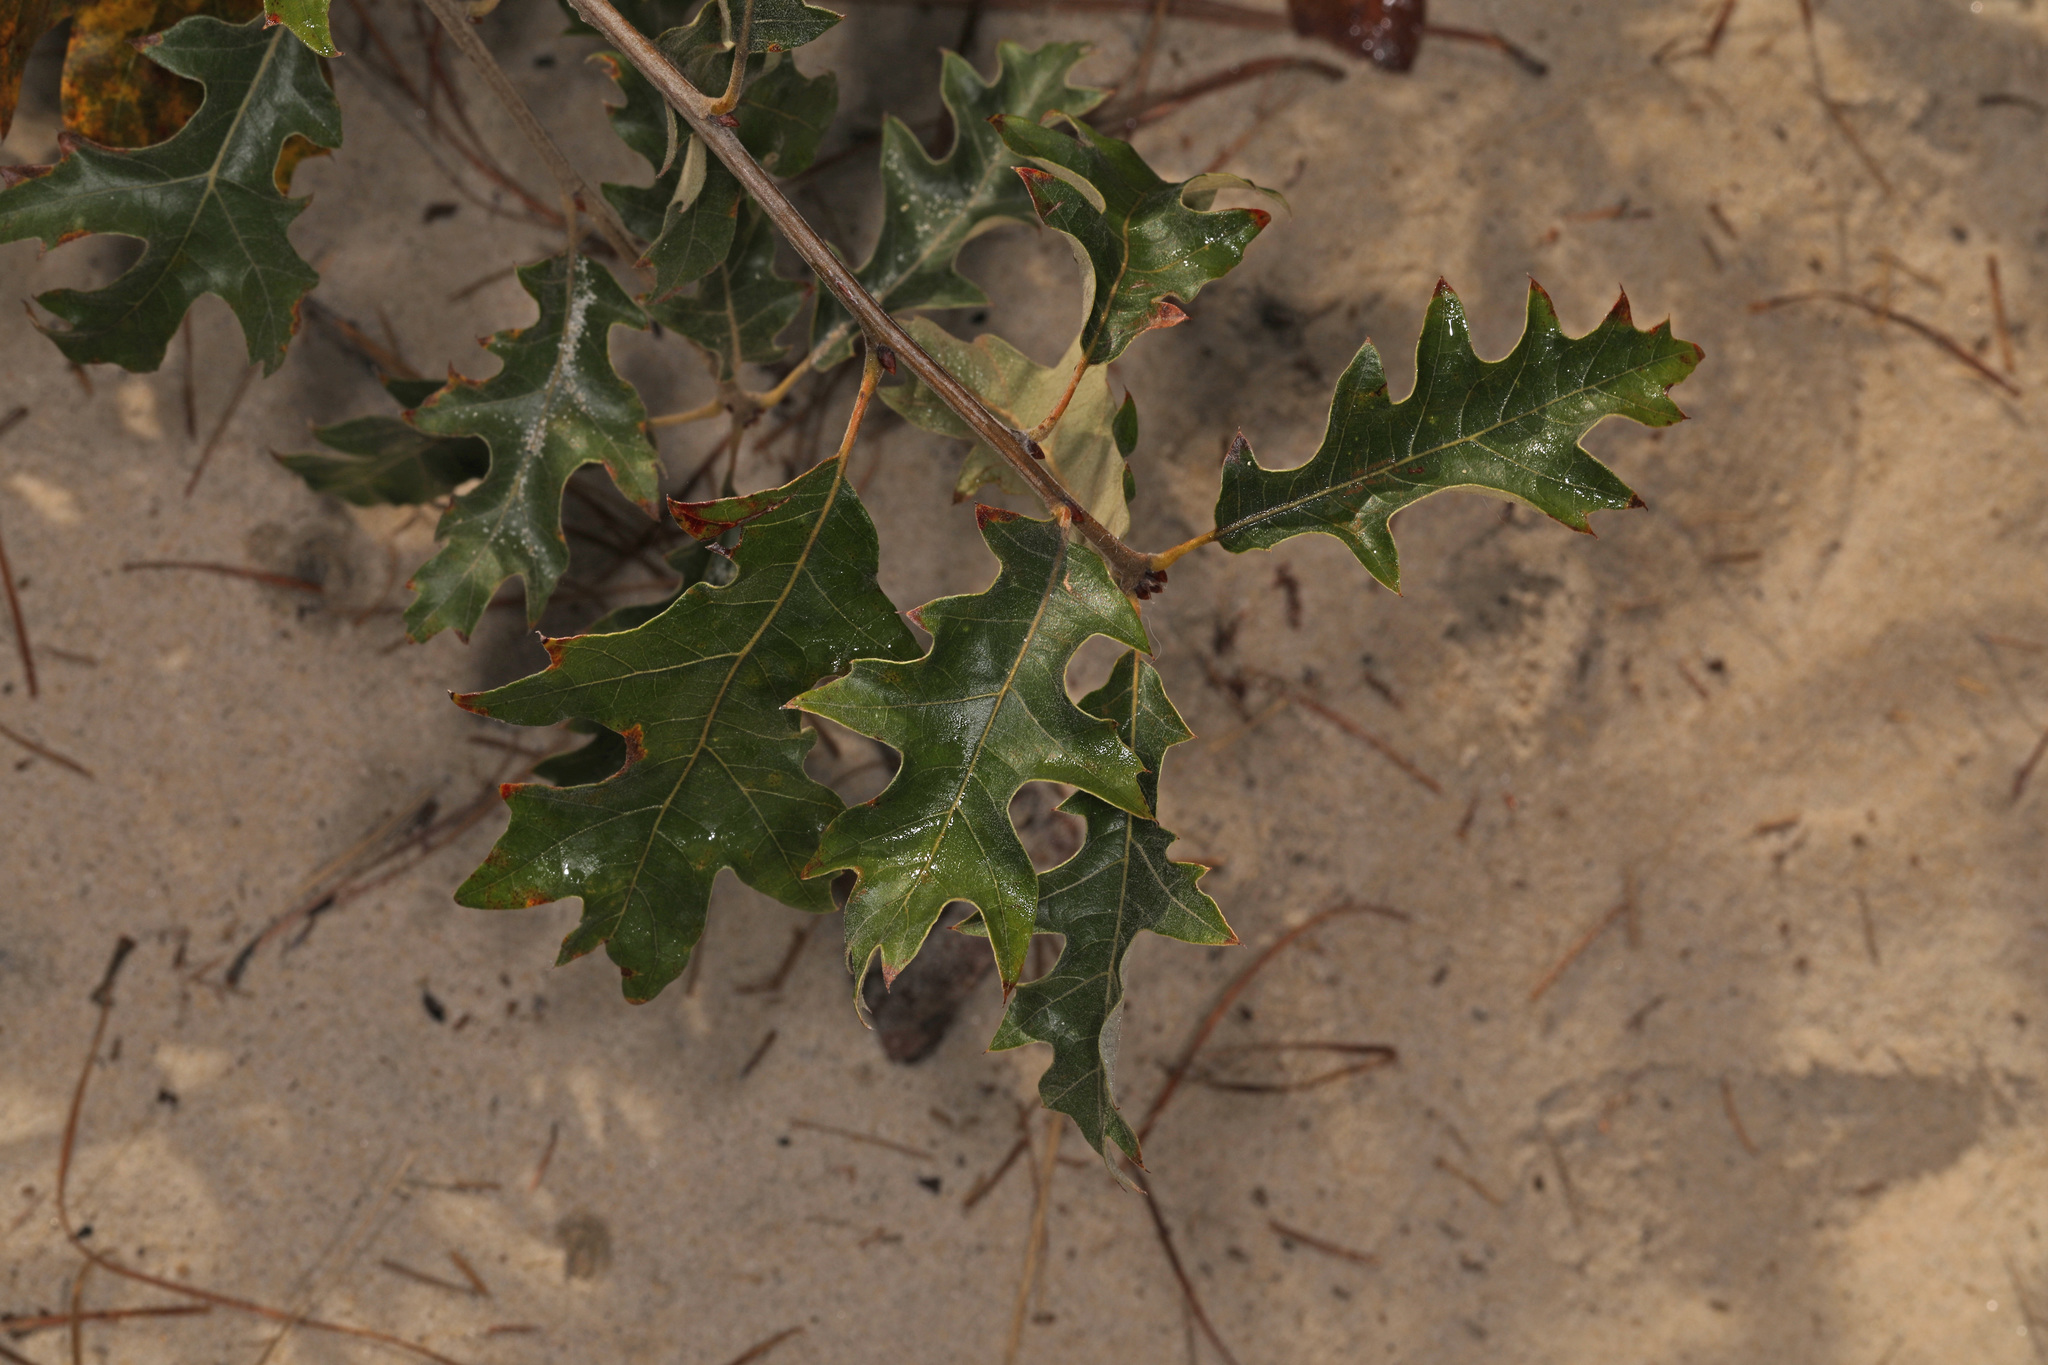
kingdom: Plantae
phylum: Tracheophyta
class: Magnoliopsida
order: Fagales
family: Fagaceae
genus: Quercus
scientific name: Quercus pagoda
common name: Cherrybark oak
